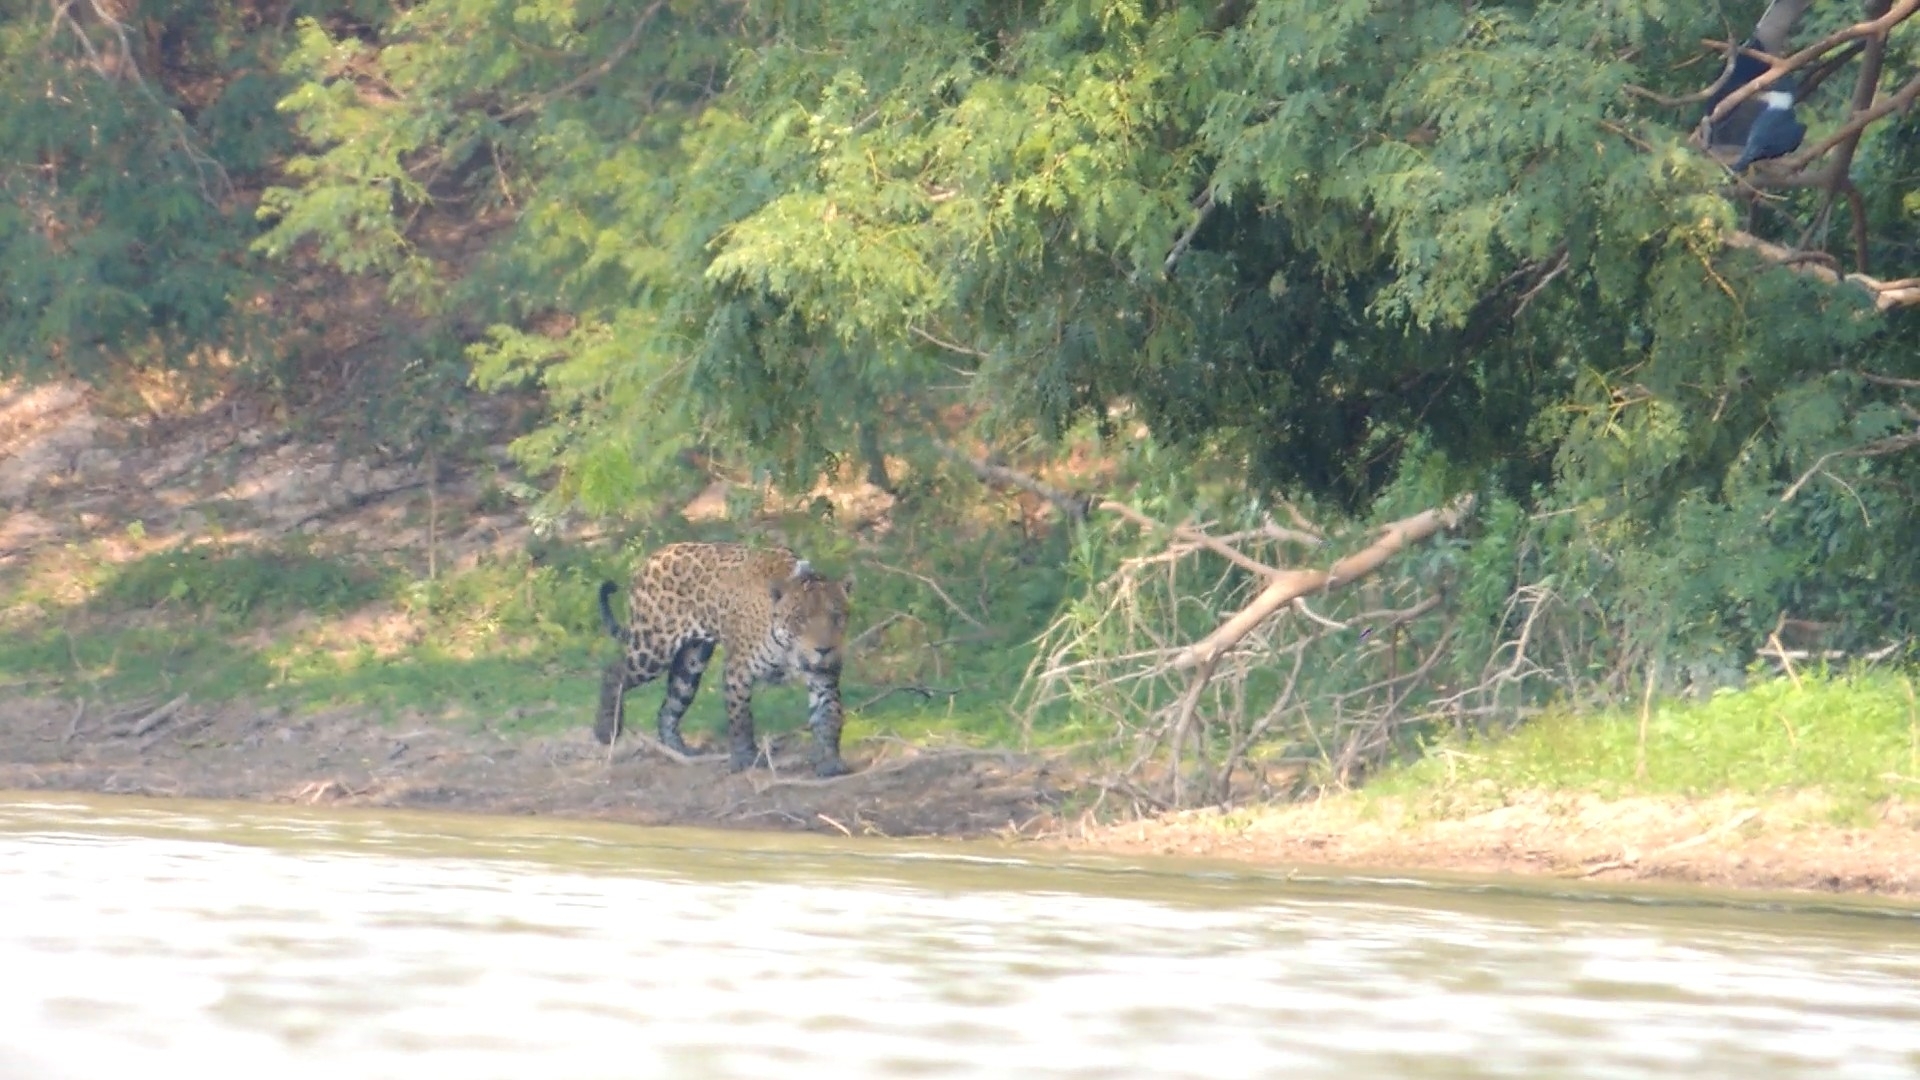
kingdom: Animalia
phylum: Chordata
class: Mammalia
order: Carnivora
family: Felidae
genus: Panthera
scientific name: Panthera onca
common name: Jaguar
